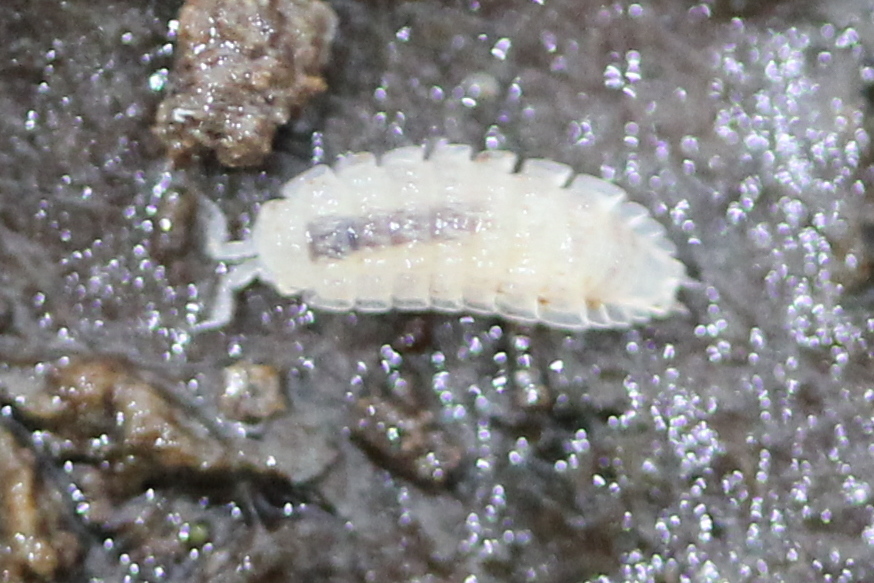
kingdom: Animalia
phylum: Arthropoda
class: Malacostraca
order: Isopoda
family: Trichoniscidae
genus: Haplophthalmus
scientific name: Haplophthalmus danicus
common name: Pillbug
